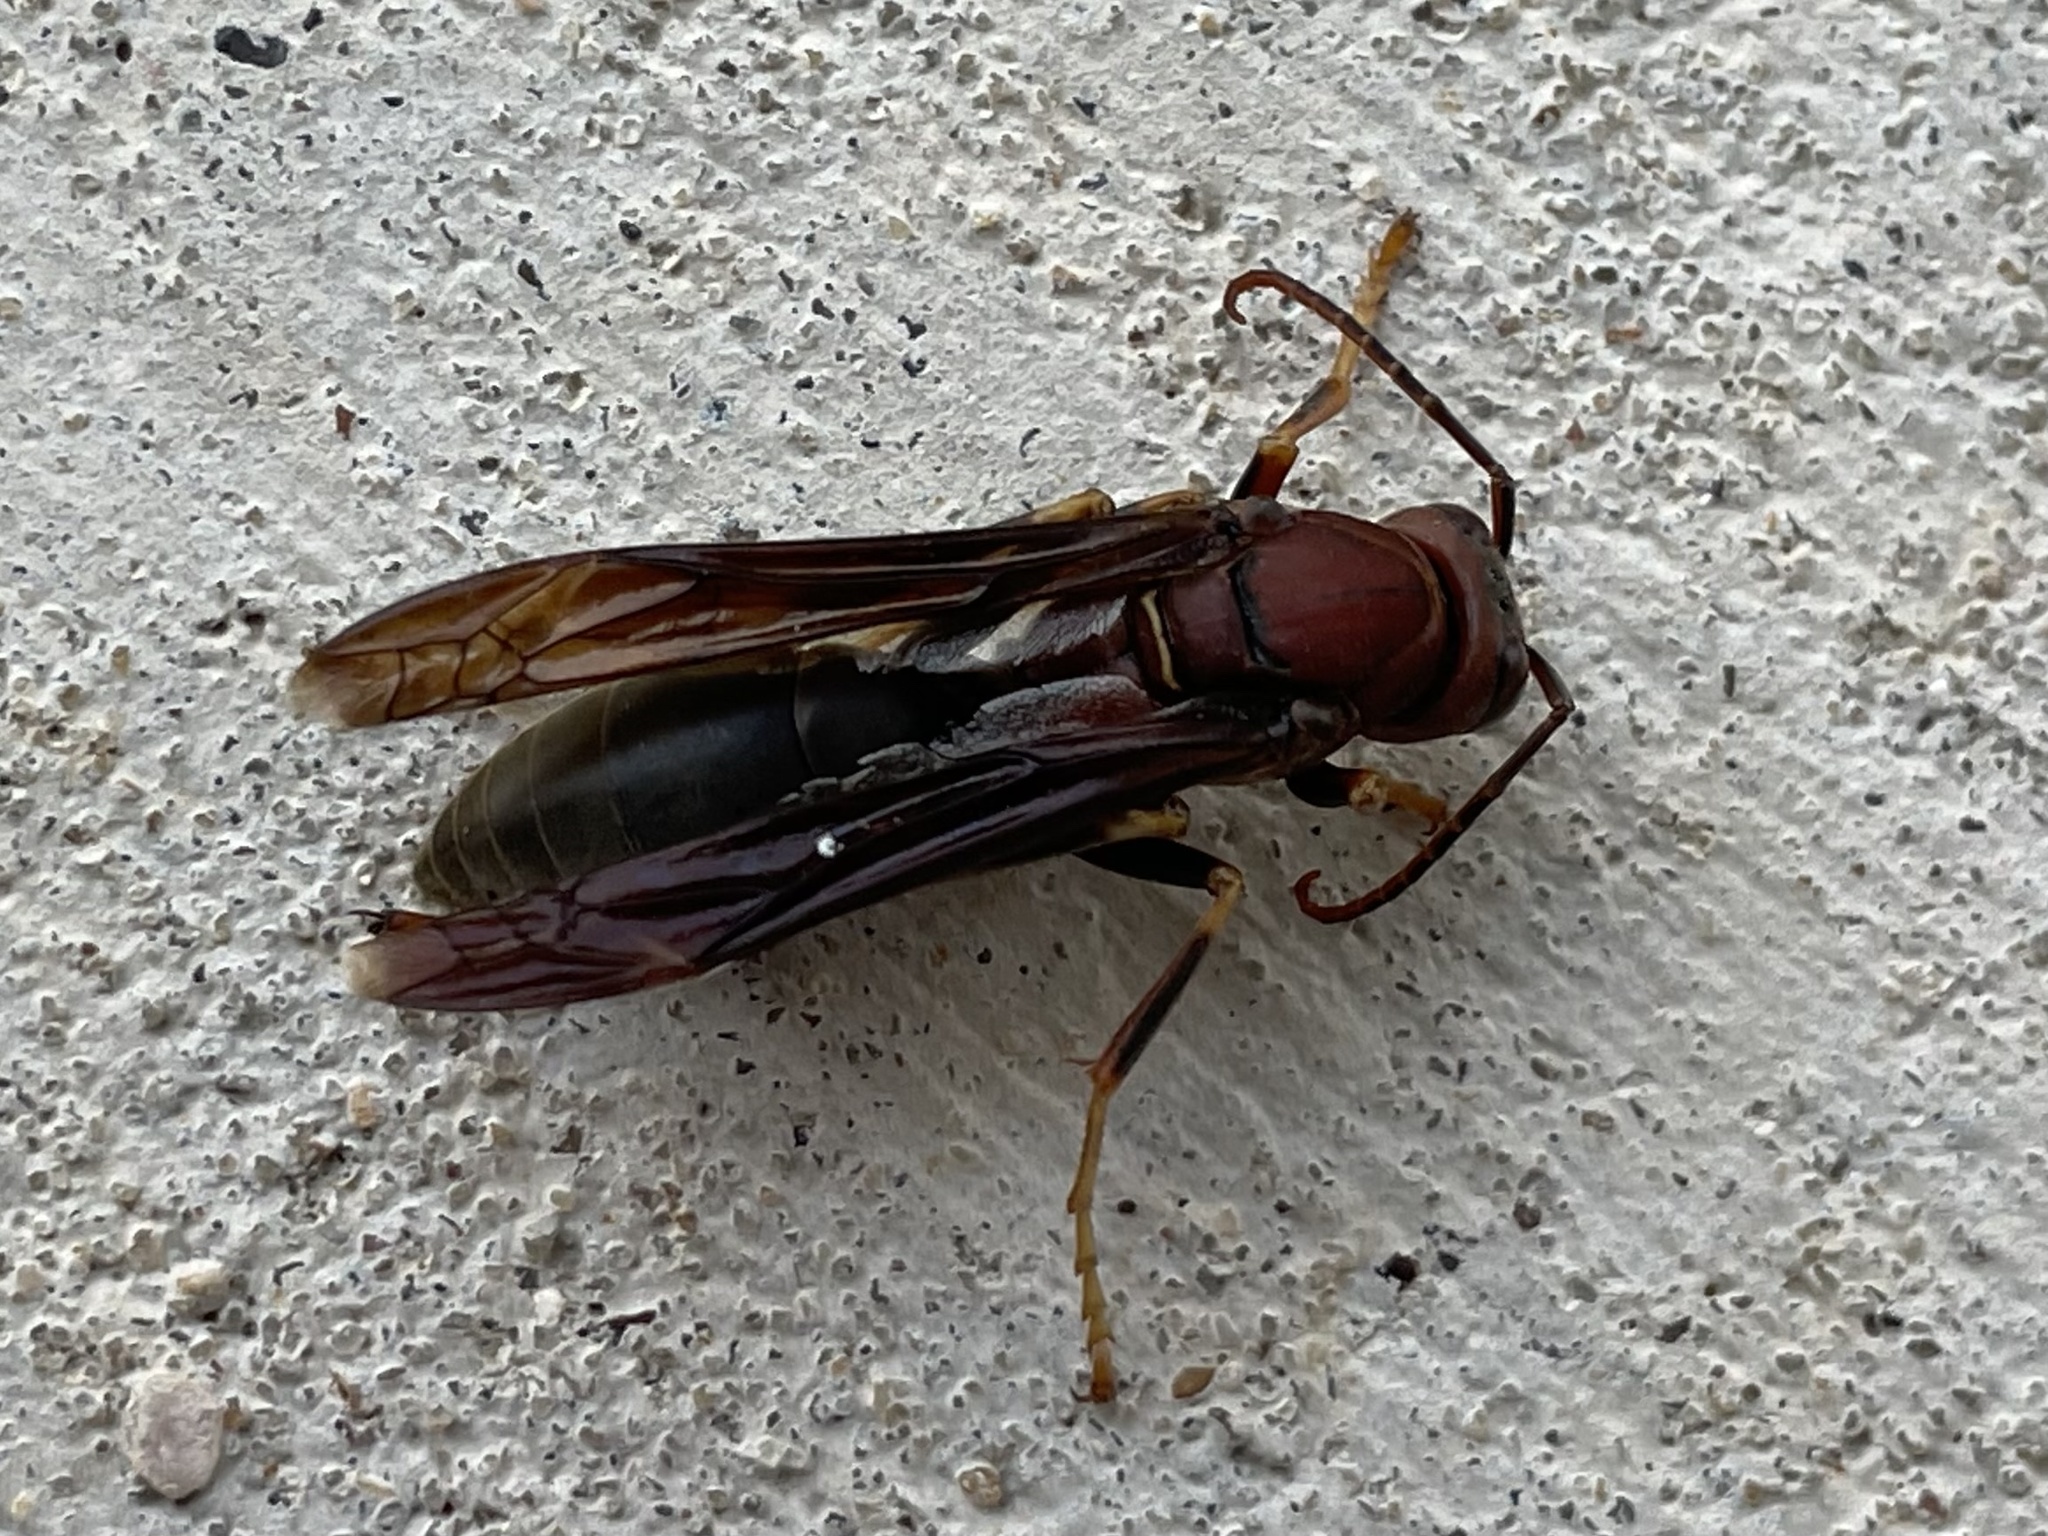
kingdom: Animalia
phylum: Arthropoda
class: Insecta
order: Hymenoptera
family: Eumenidae
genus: Polistes
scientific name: Polistes metricus
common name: Metric paper wasp
